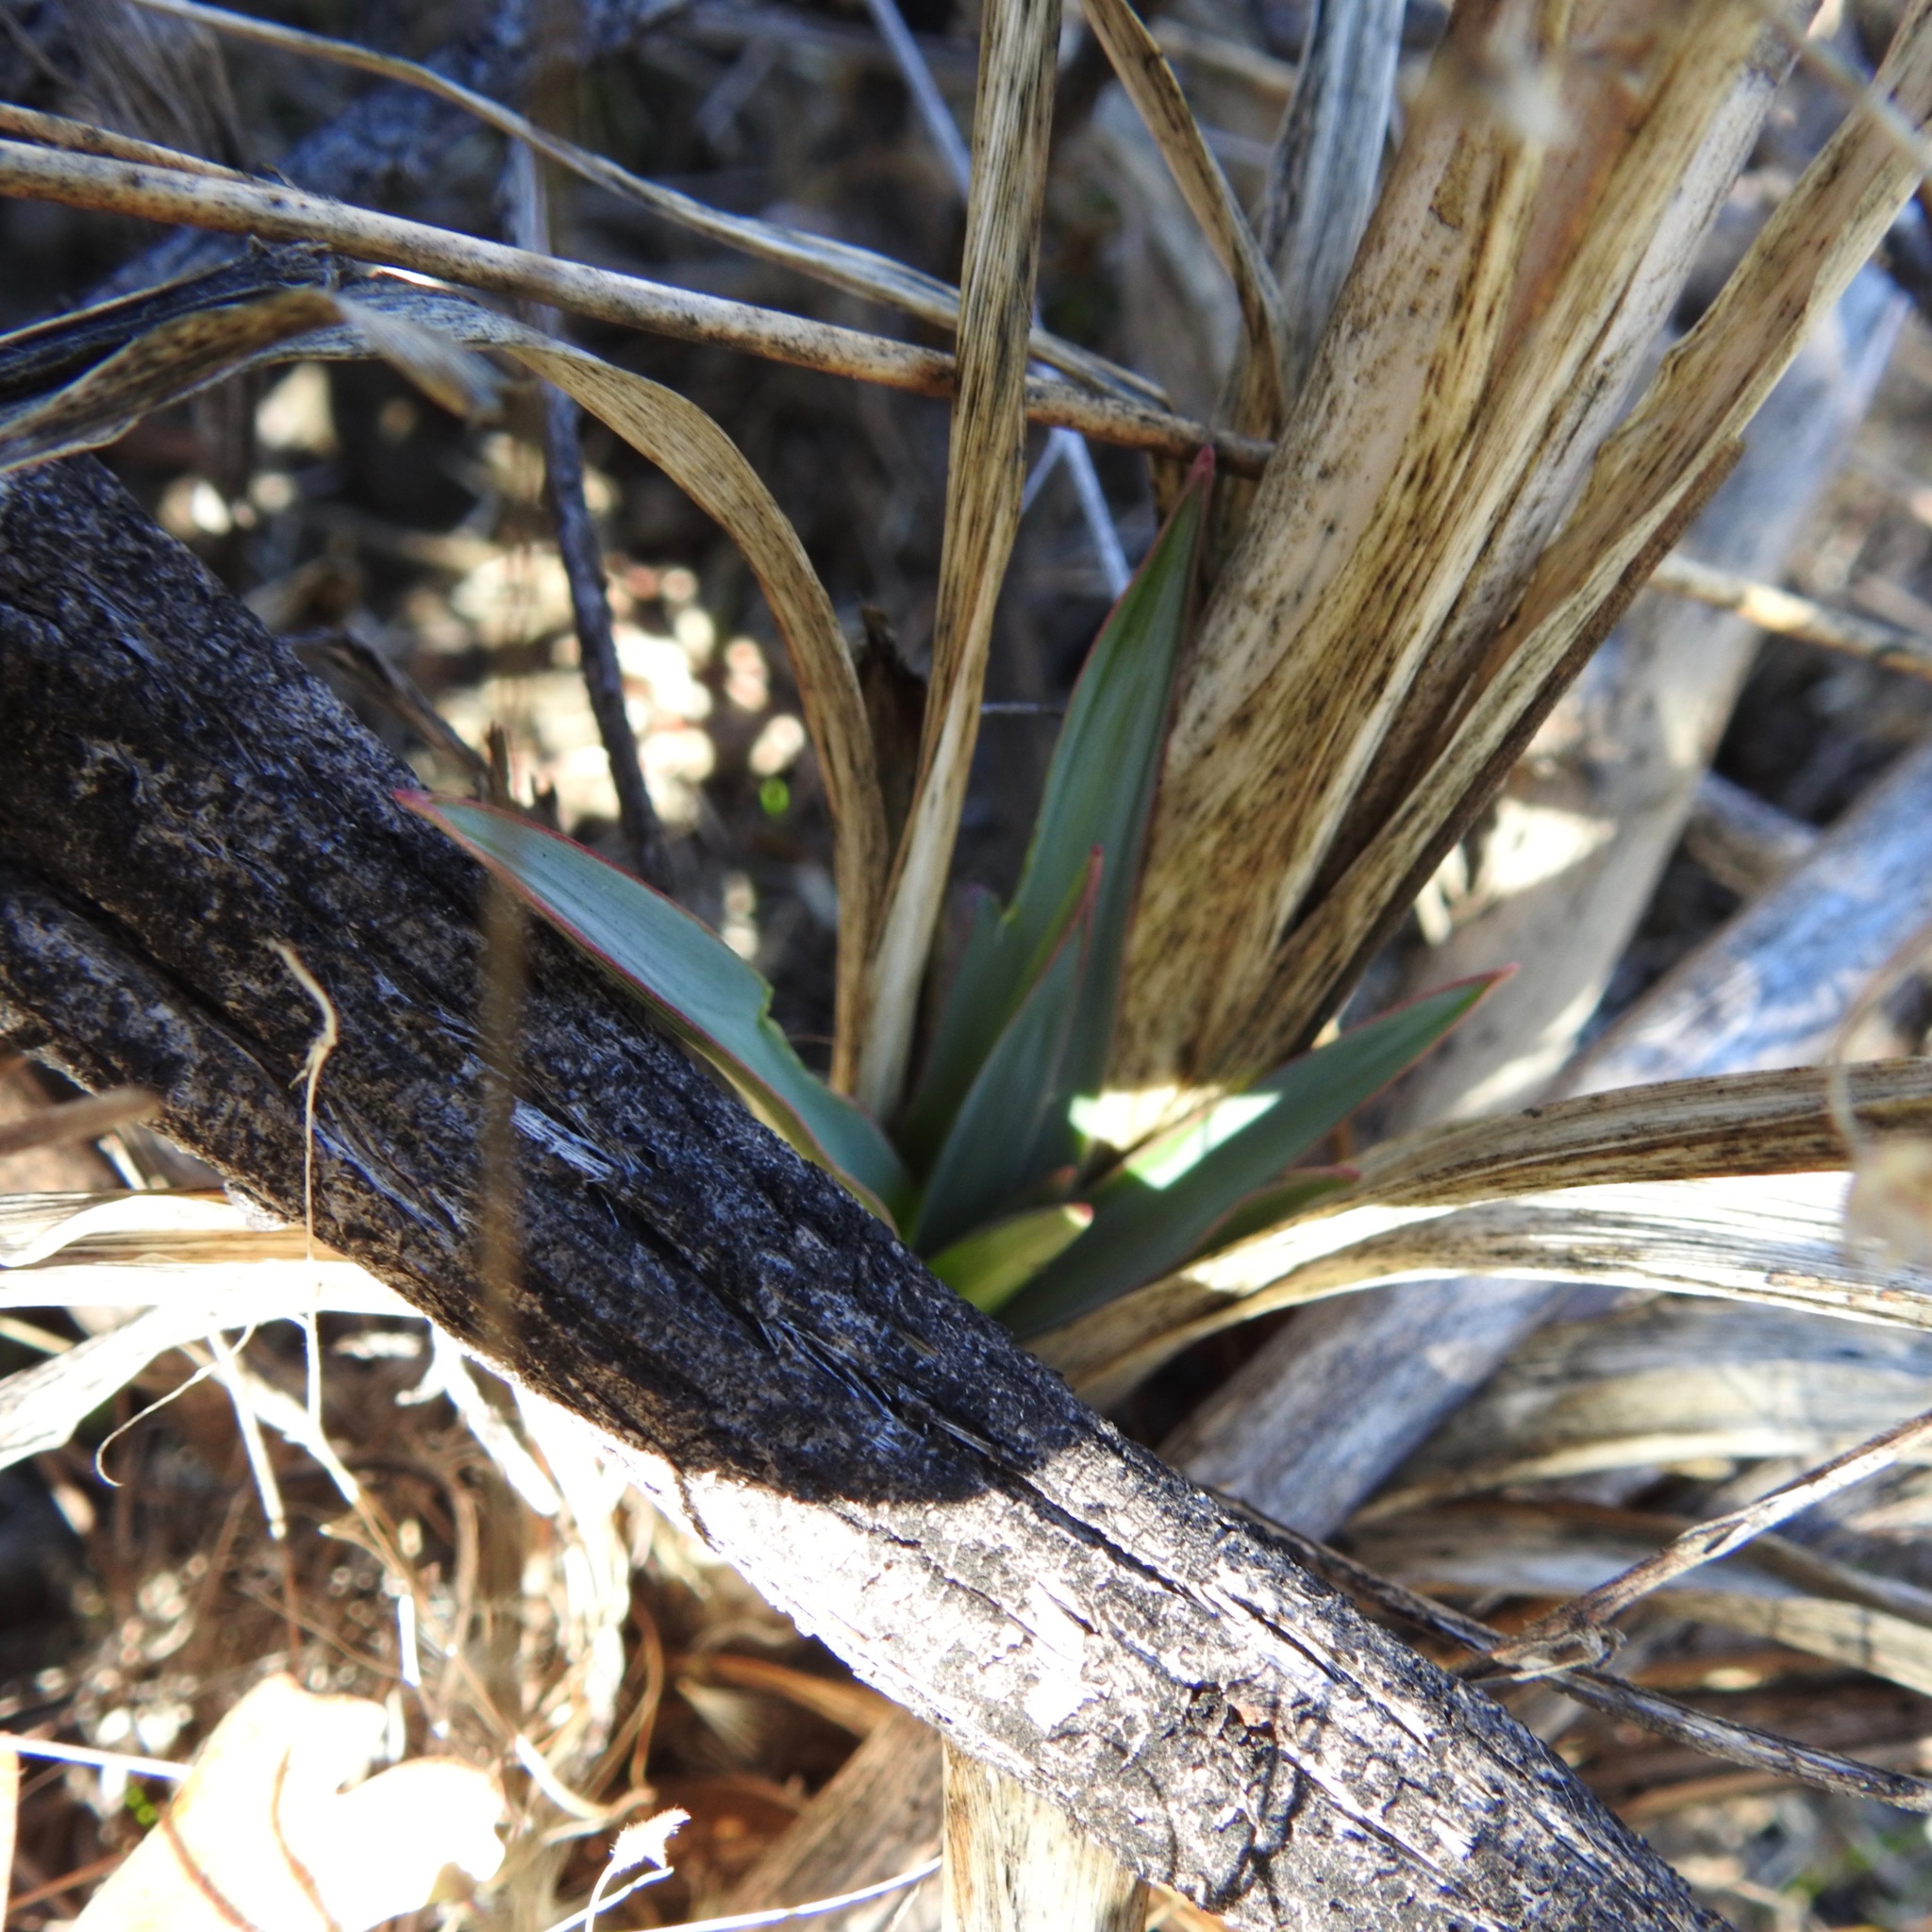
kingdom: Plantae
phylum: Tracheophyta
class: Liliopsida
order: Asparagales
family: Asparagaceae
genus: Chlorogalum
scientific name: Chlorogalum pomeridianum
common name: Amole
